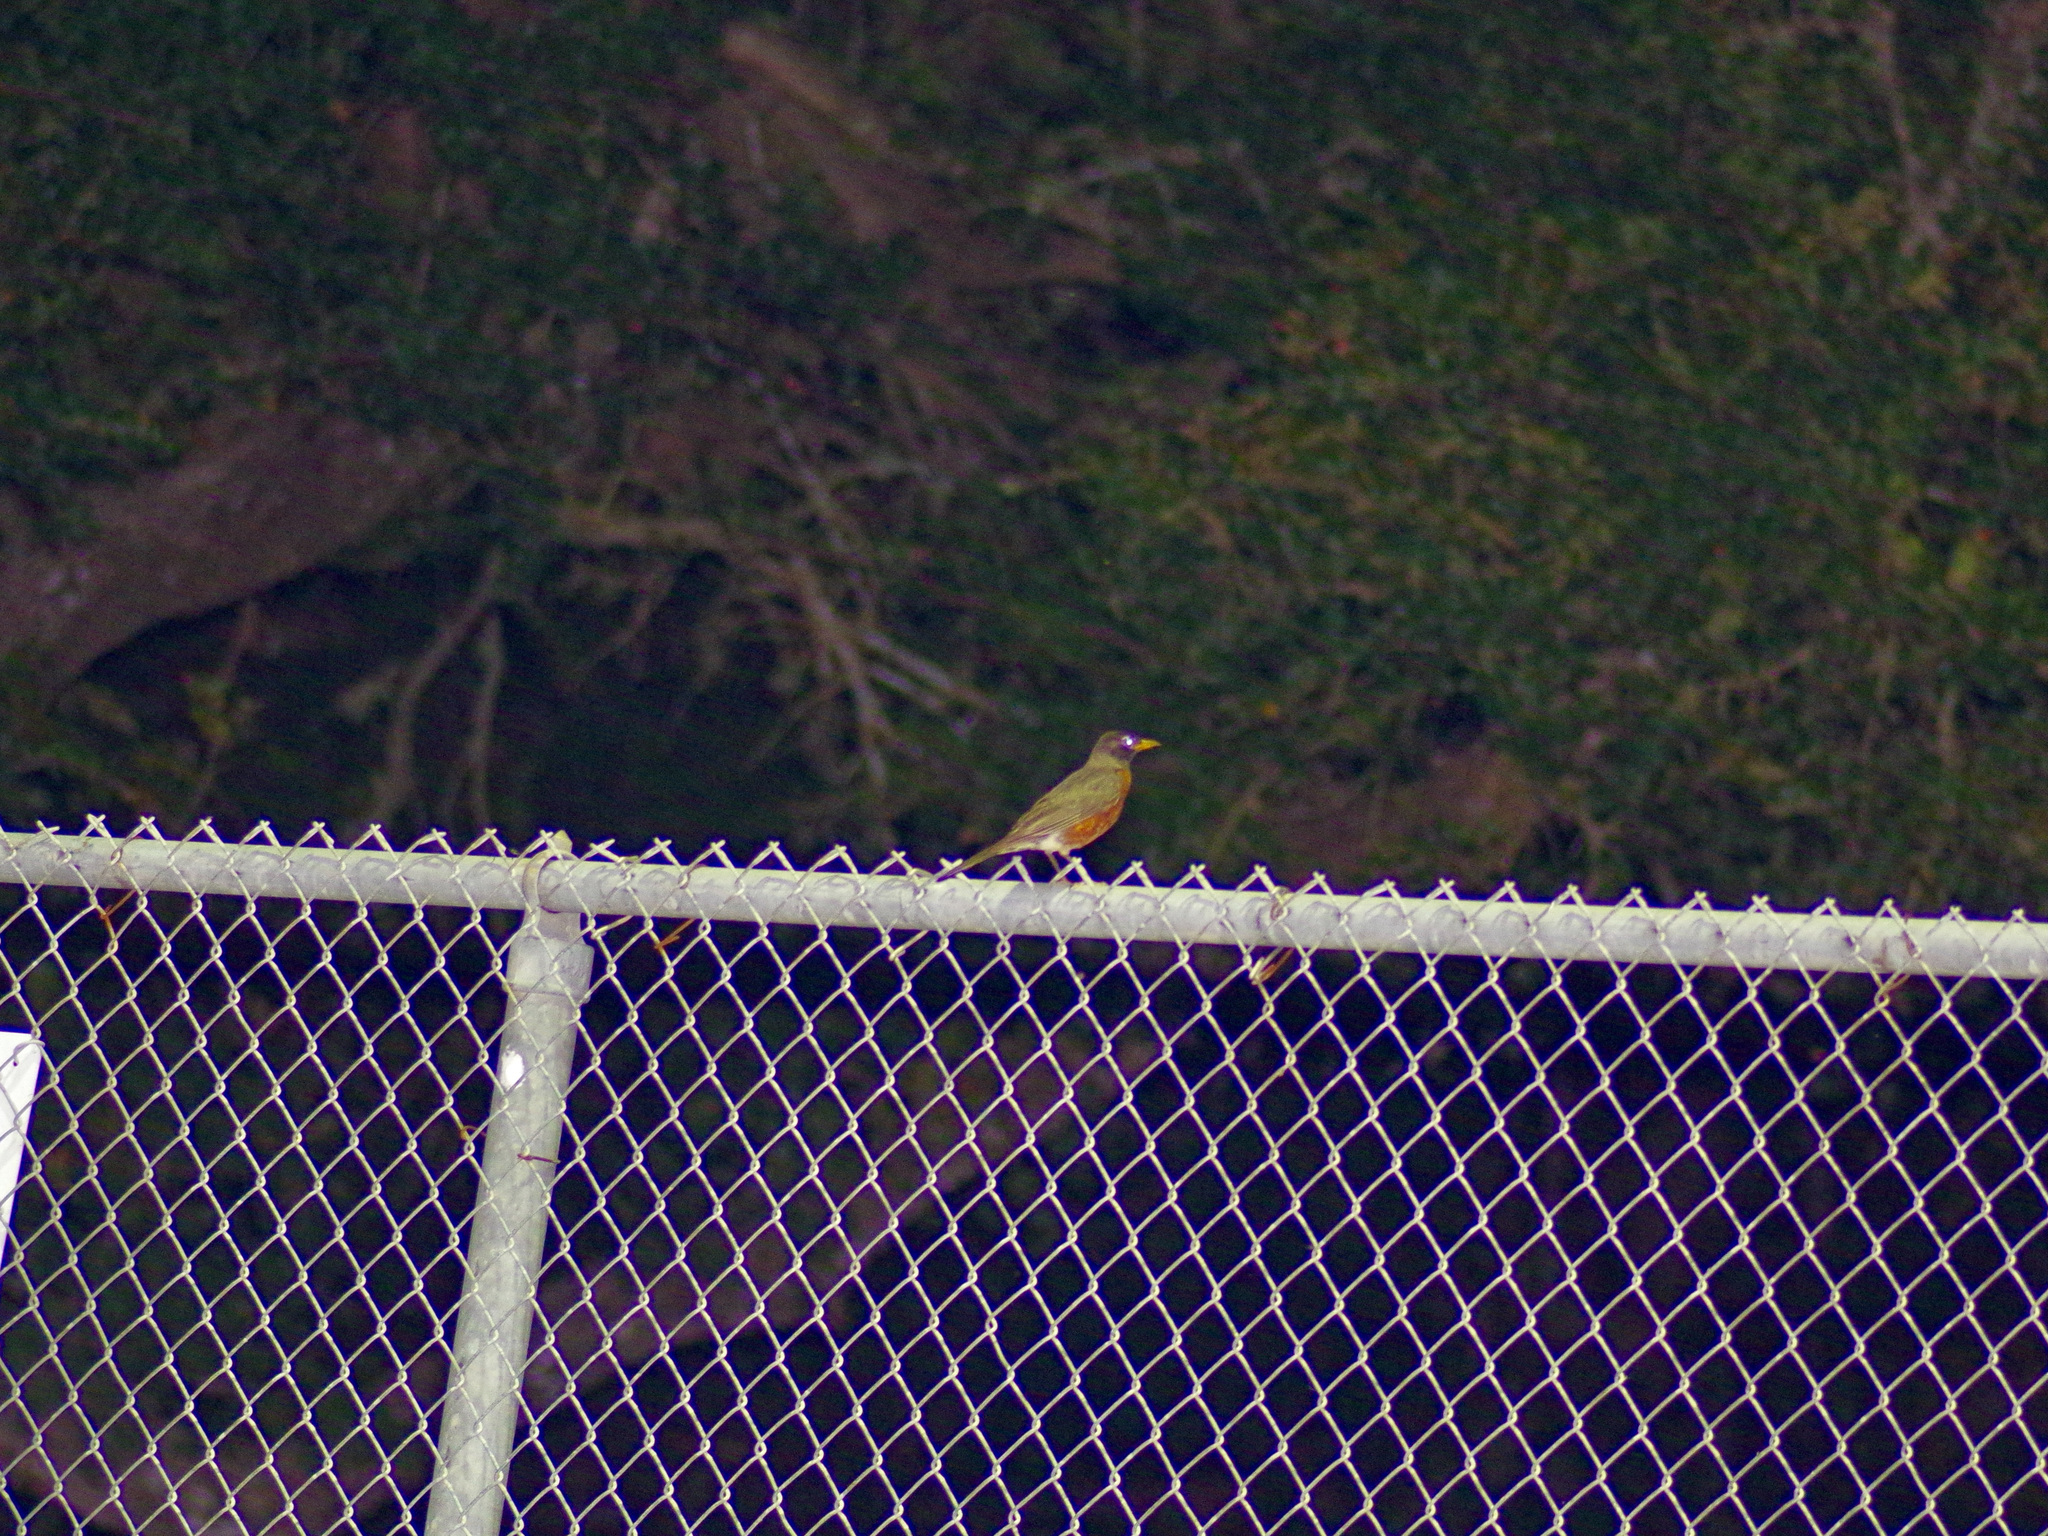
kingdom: Animalia
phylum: Chordata
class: Aves
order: Passeriformes
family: Turdidae
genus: Turdus
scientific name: Turdus migratorius
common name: American robin
